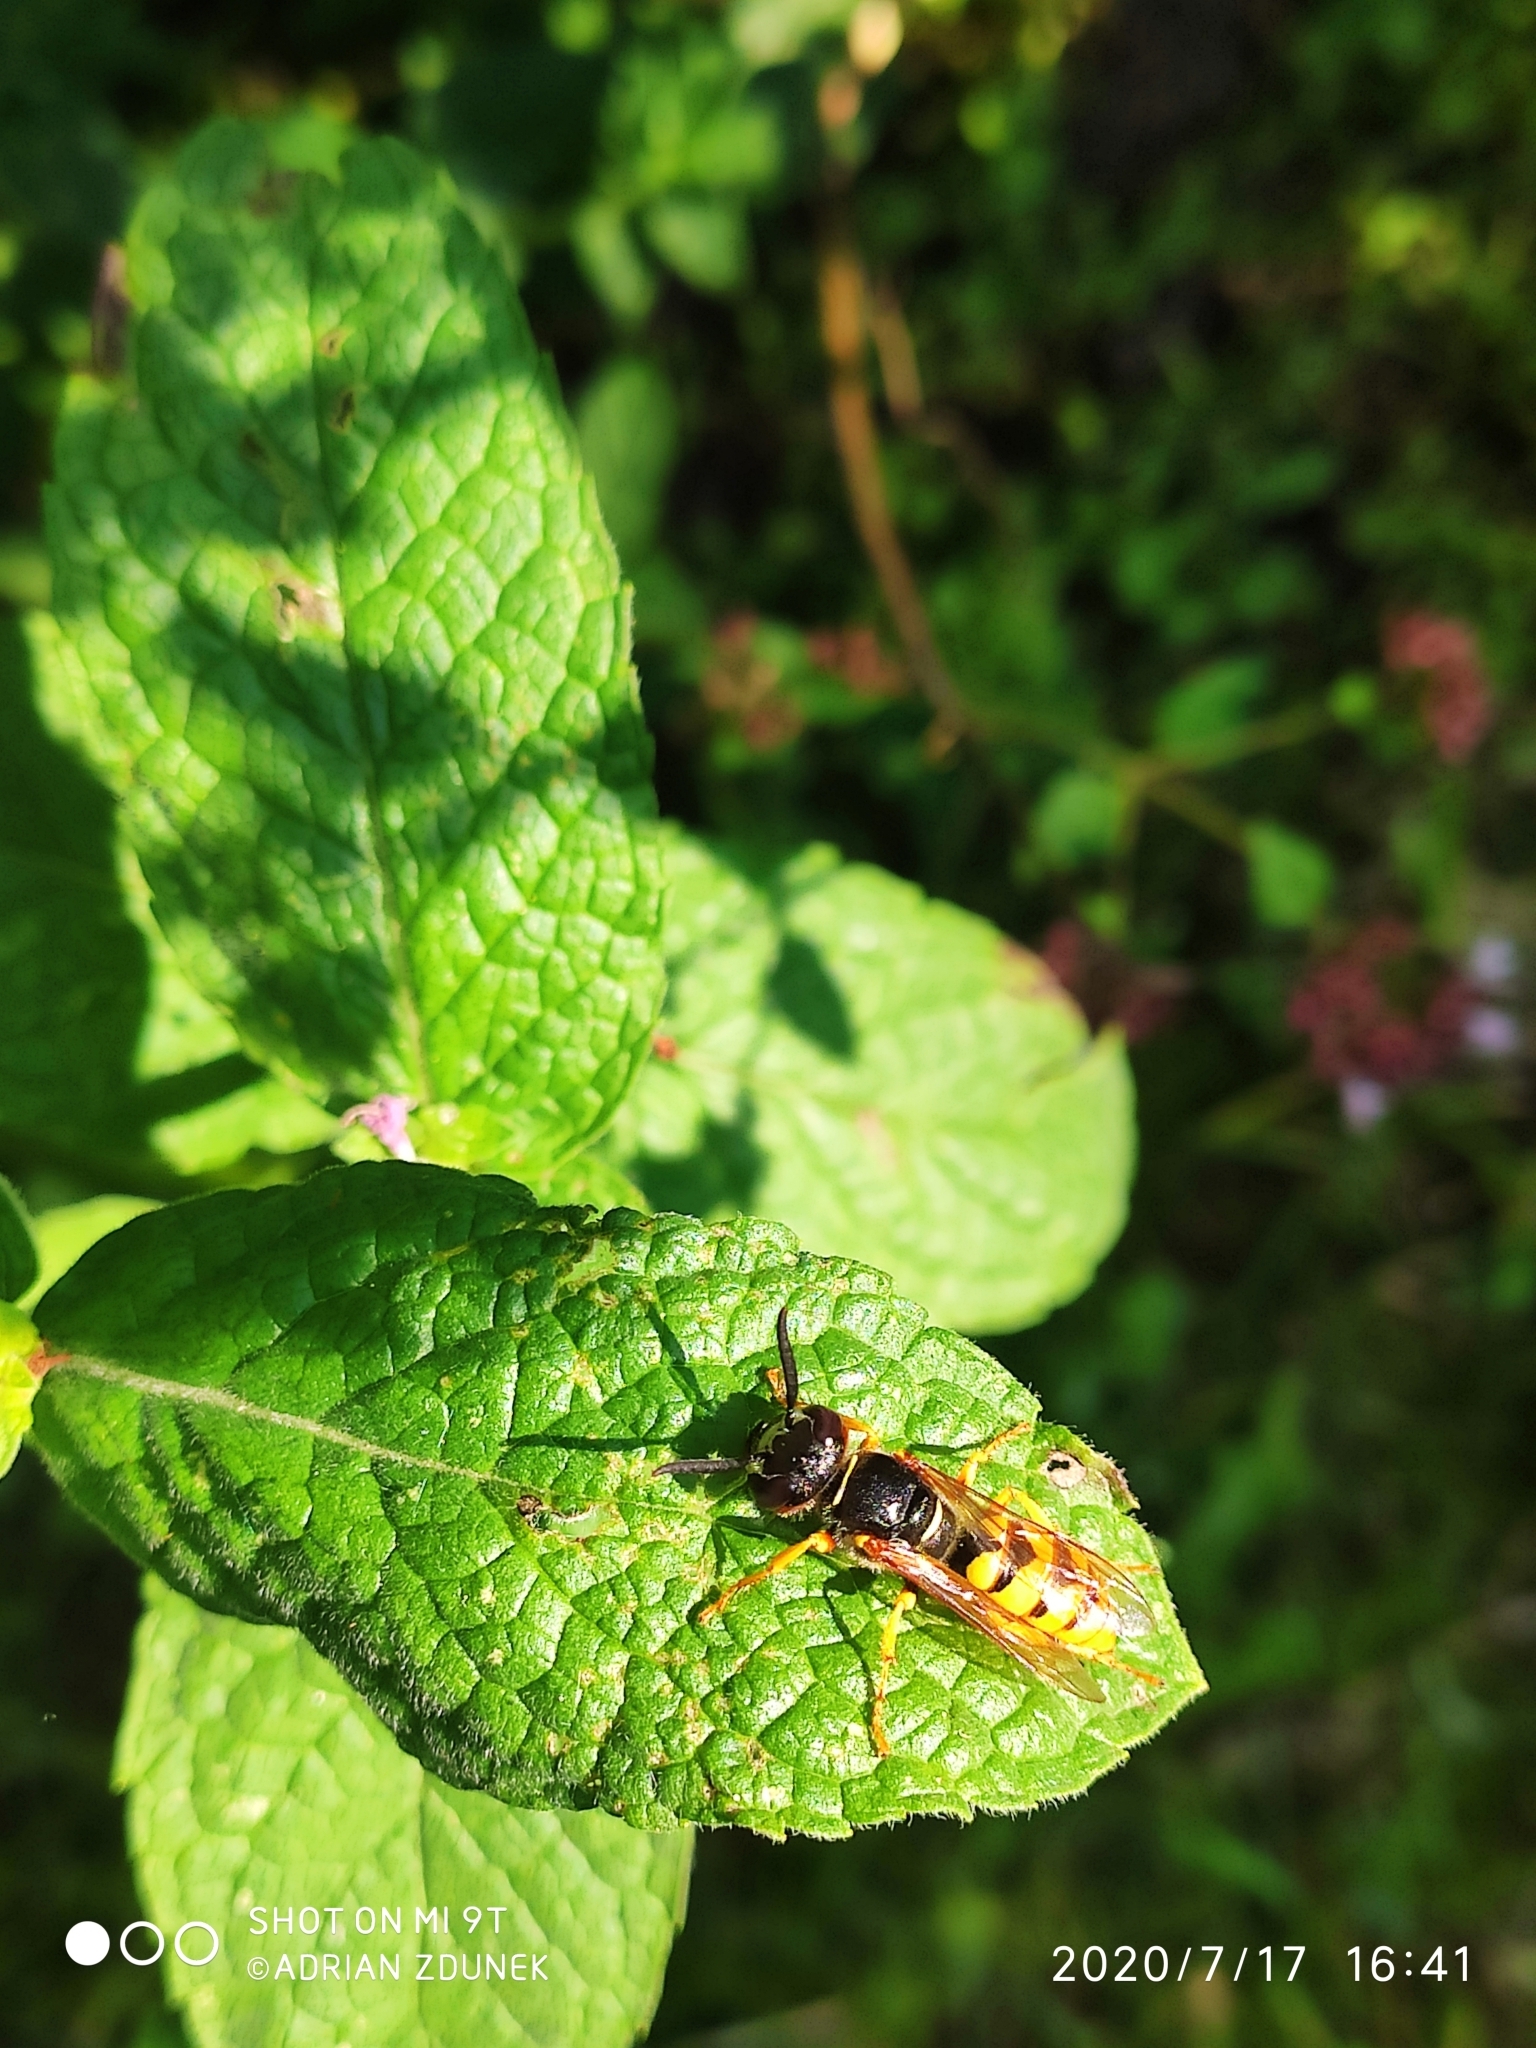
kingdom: Animalia
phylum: Arthropoda
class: Insecta
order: Hymenoptera
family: Crabronidae
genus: Philanthus
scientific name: Philanthus triangulum
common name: Bee wolf
